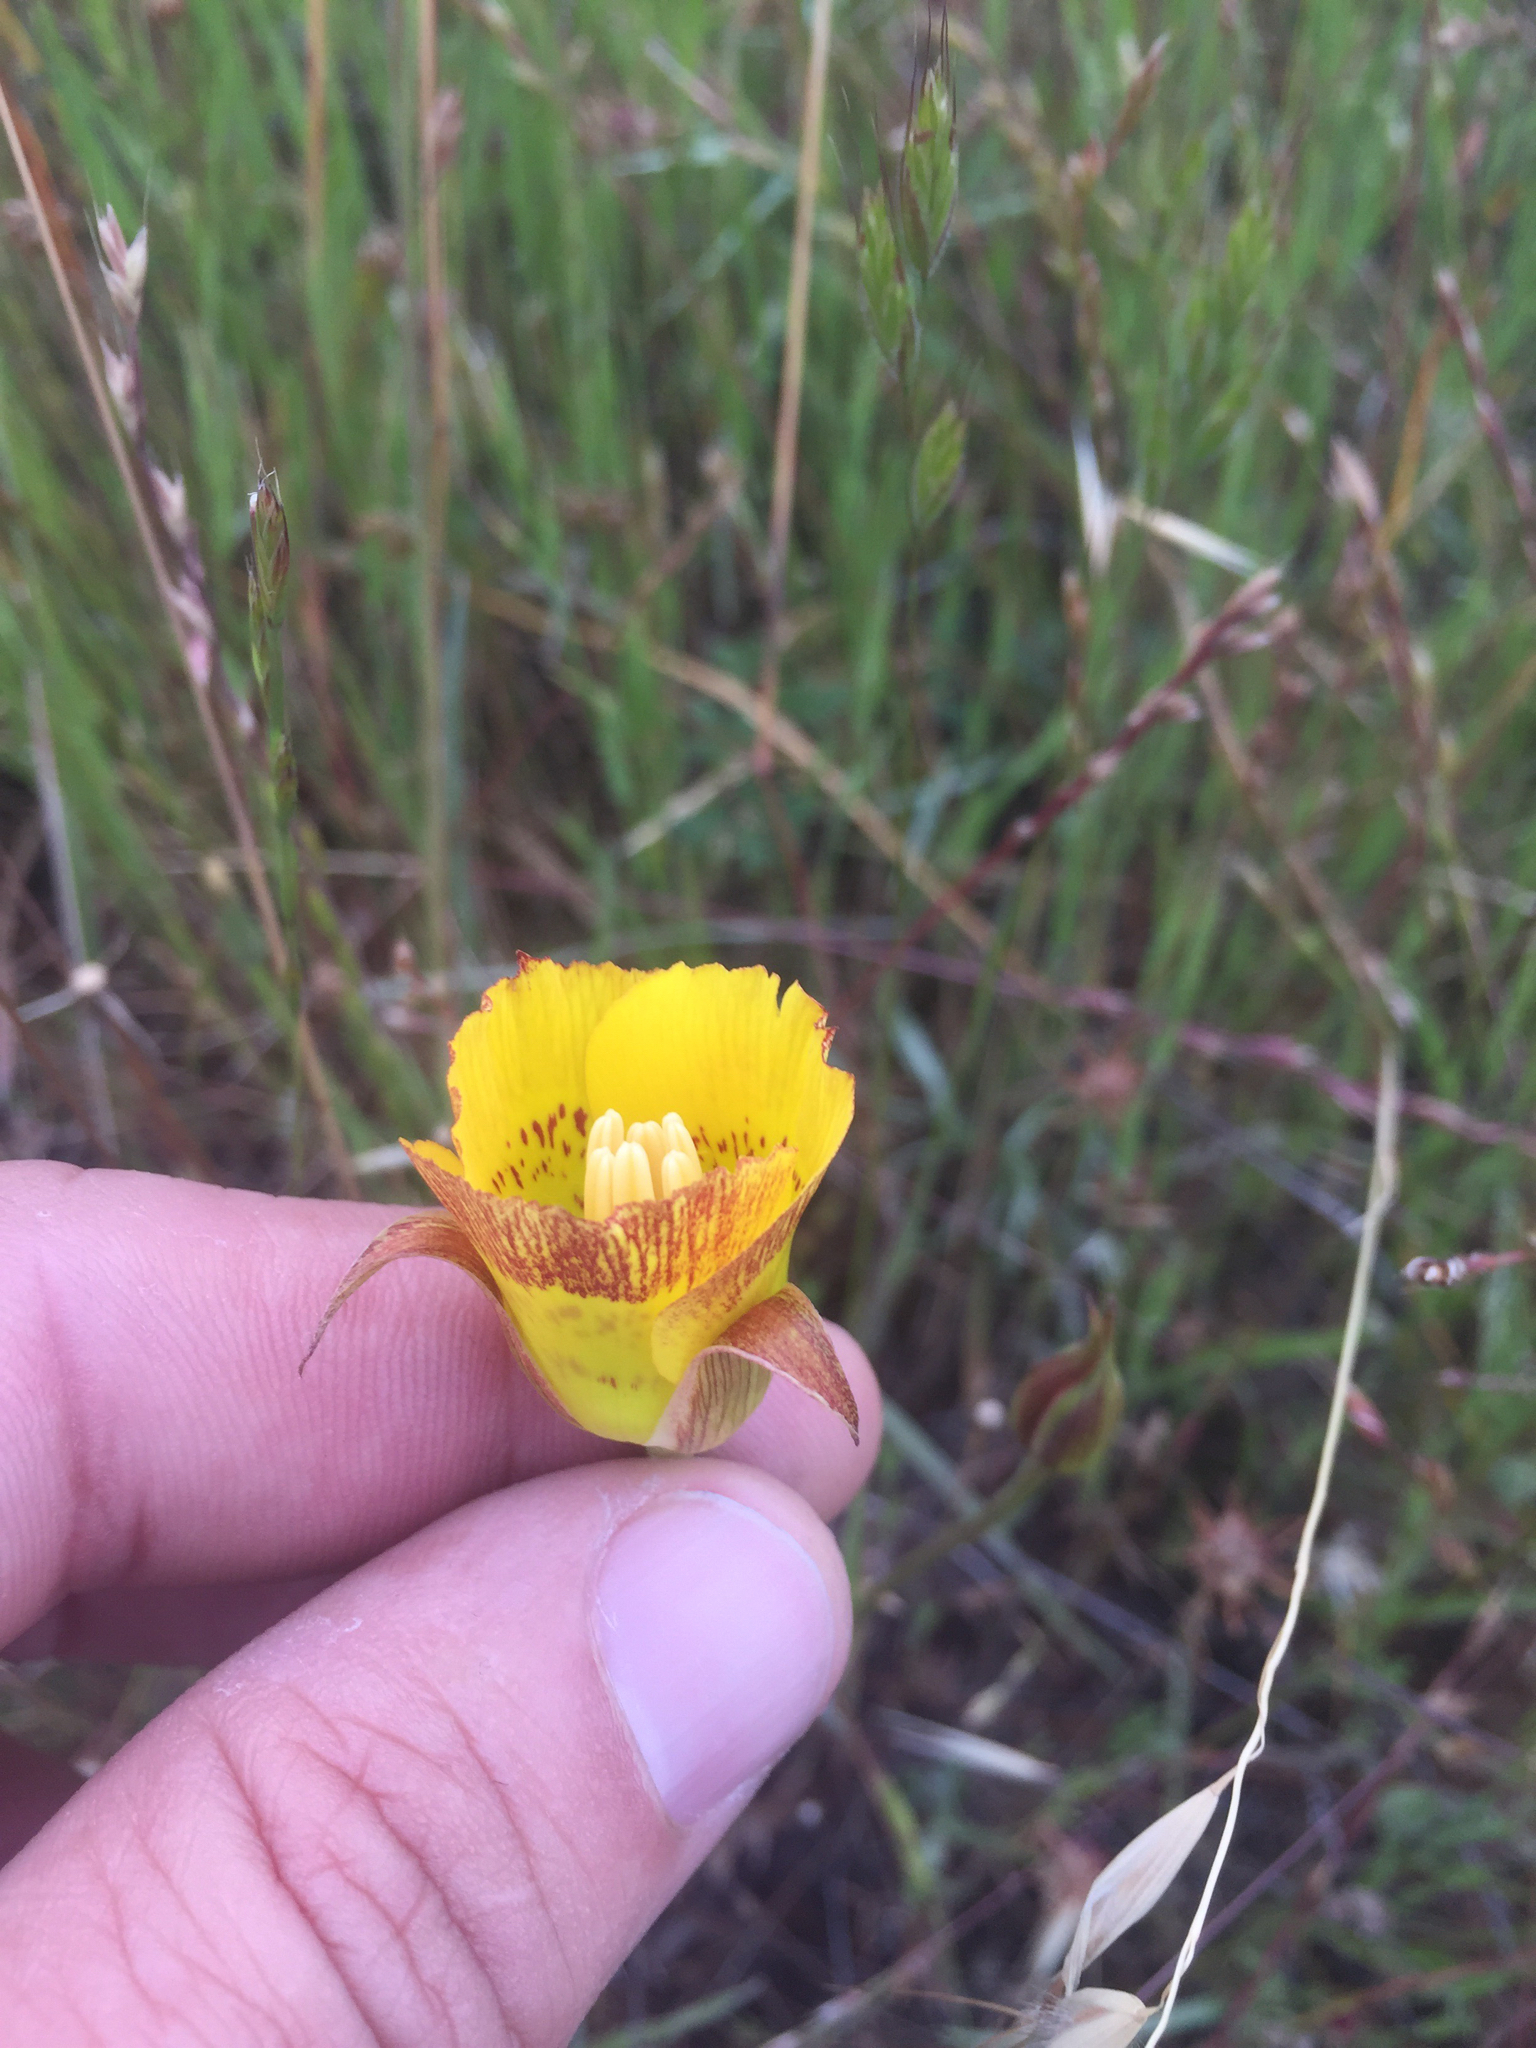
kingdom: Plantae
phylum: Tracheophyta
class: Liliopsida
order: Liliales
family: Liliaceae
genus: Calochortus
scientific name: Calochortus luteus
